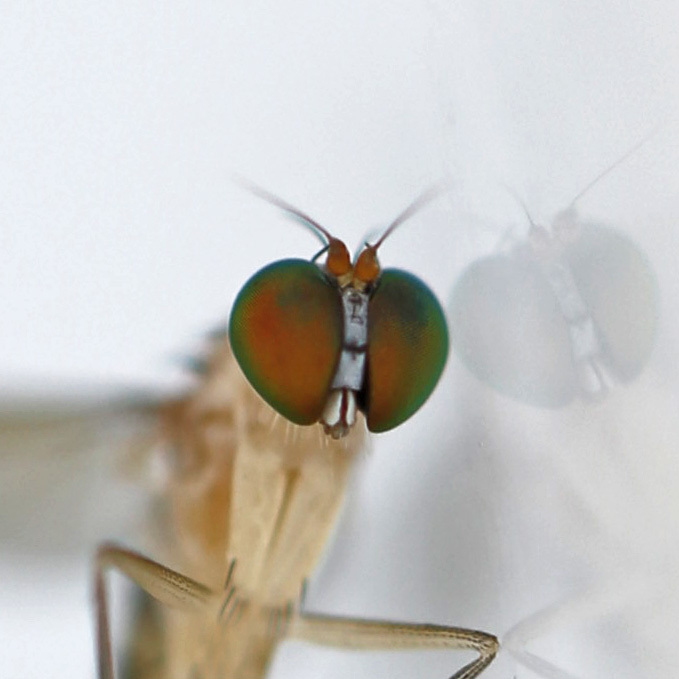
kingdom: Animalia
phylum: Arthropoda
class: Insecta
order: Diptera
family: Dolichopodidae
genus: Neurigona
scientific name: Neurigona rubella
